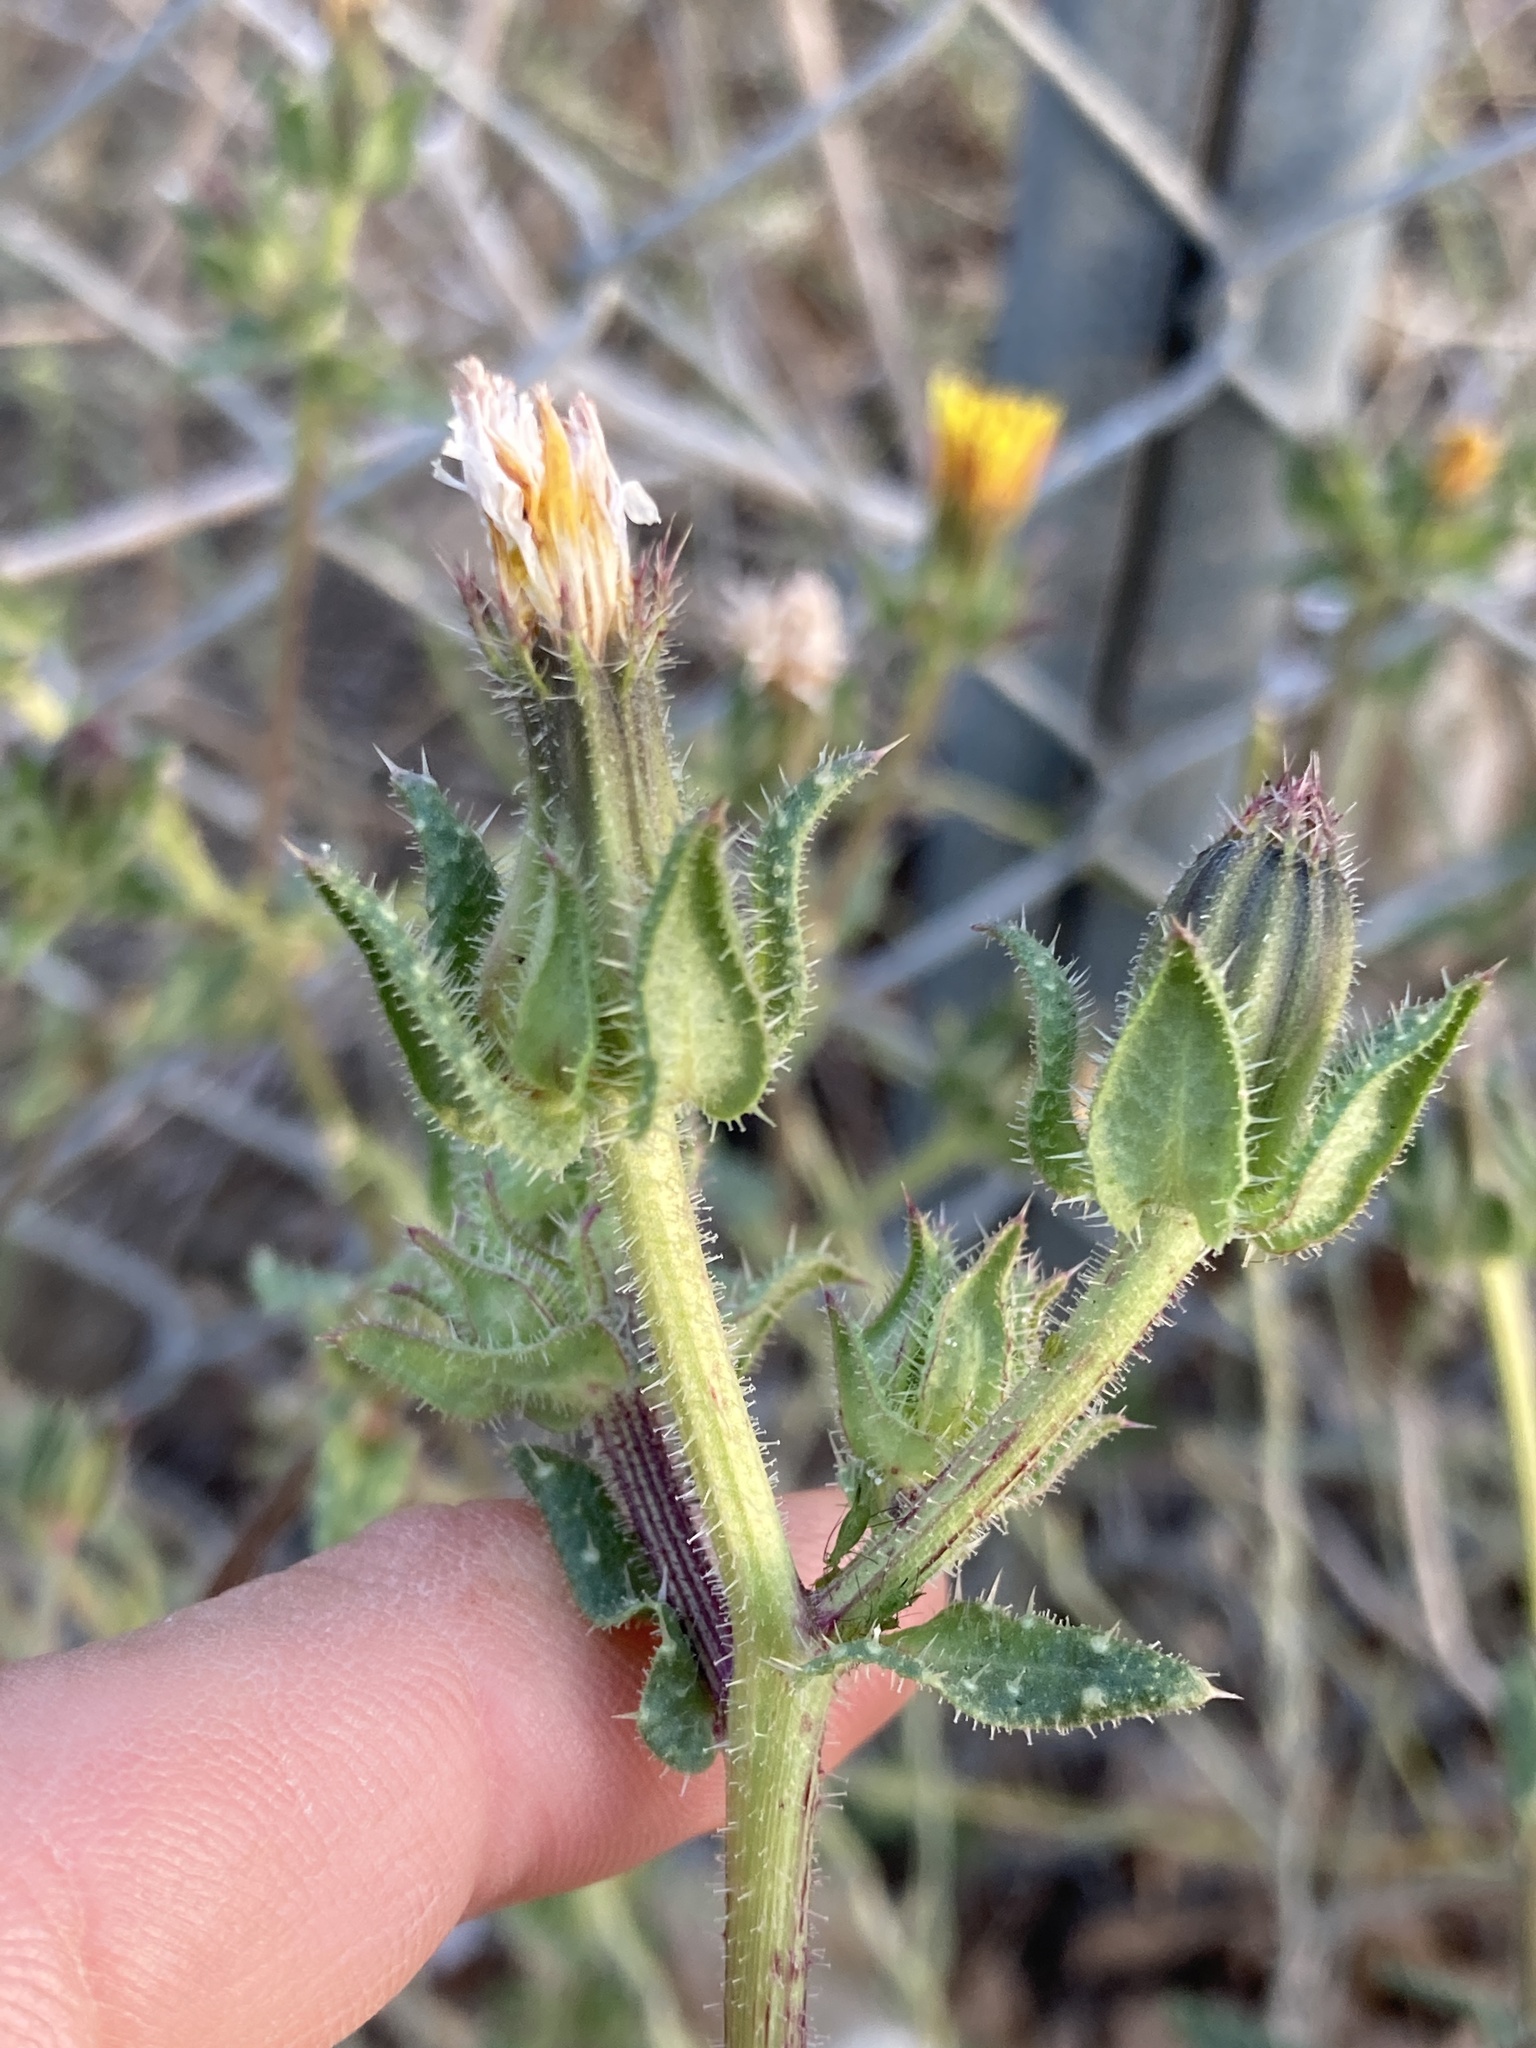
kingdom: Plantae
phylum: Tracheophyta
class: Magnoliopsida
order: Asterales
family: Asteraceae
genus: Helminthotheca
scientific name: Helminthotheca echioides
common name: Ox-tongue
